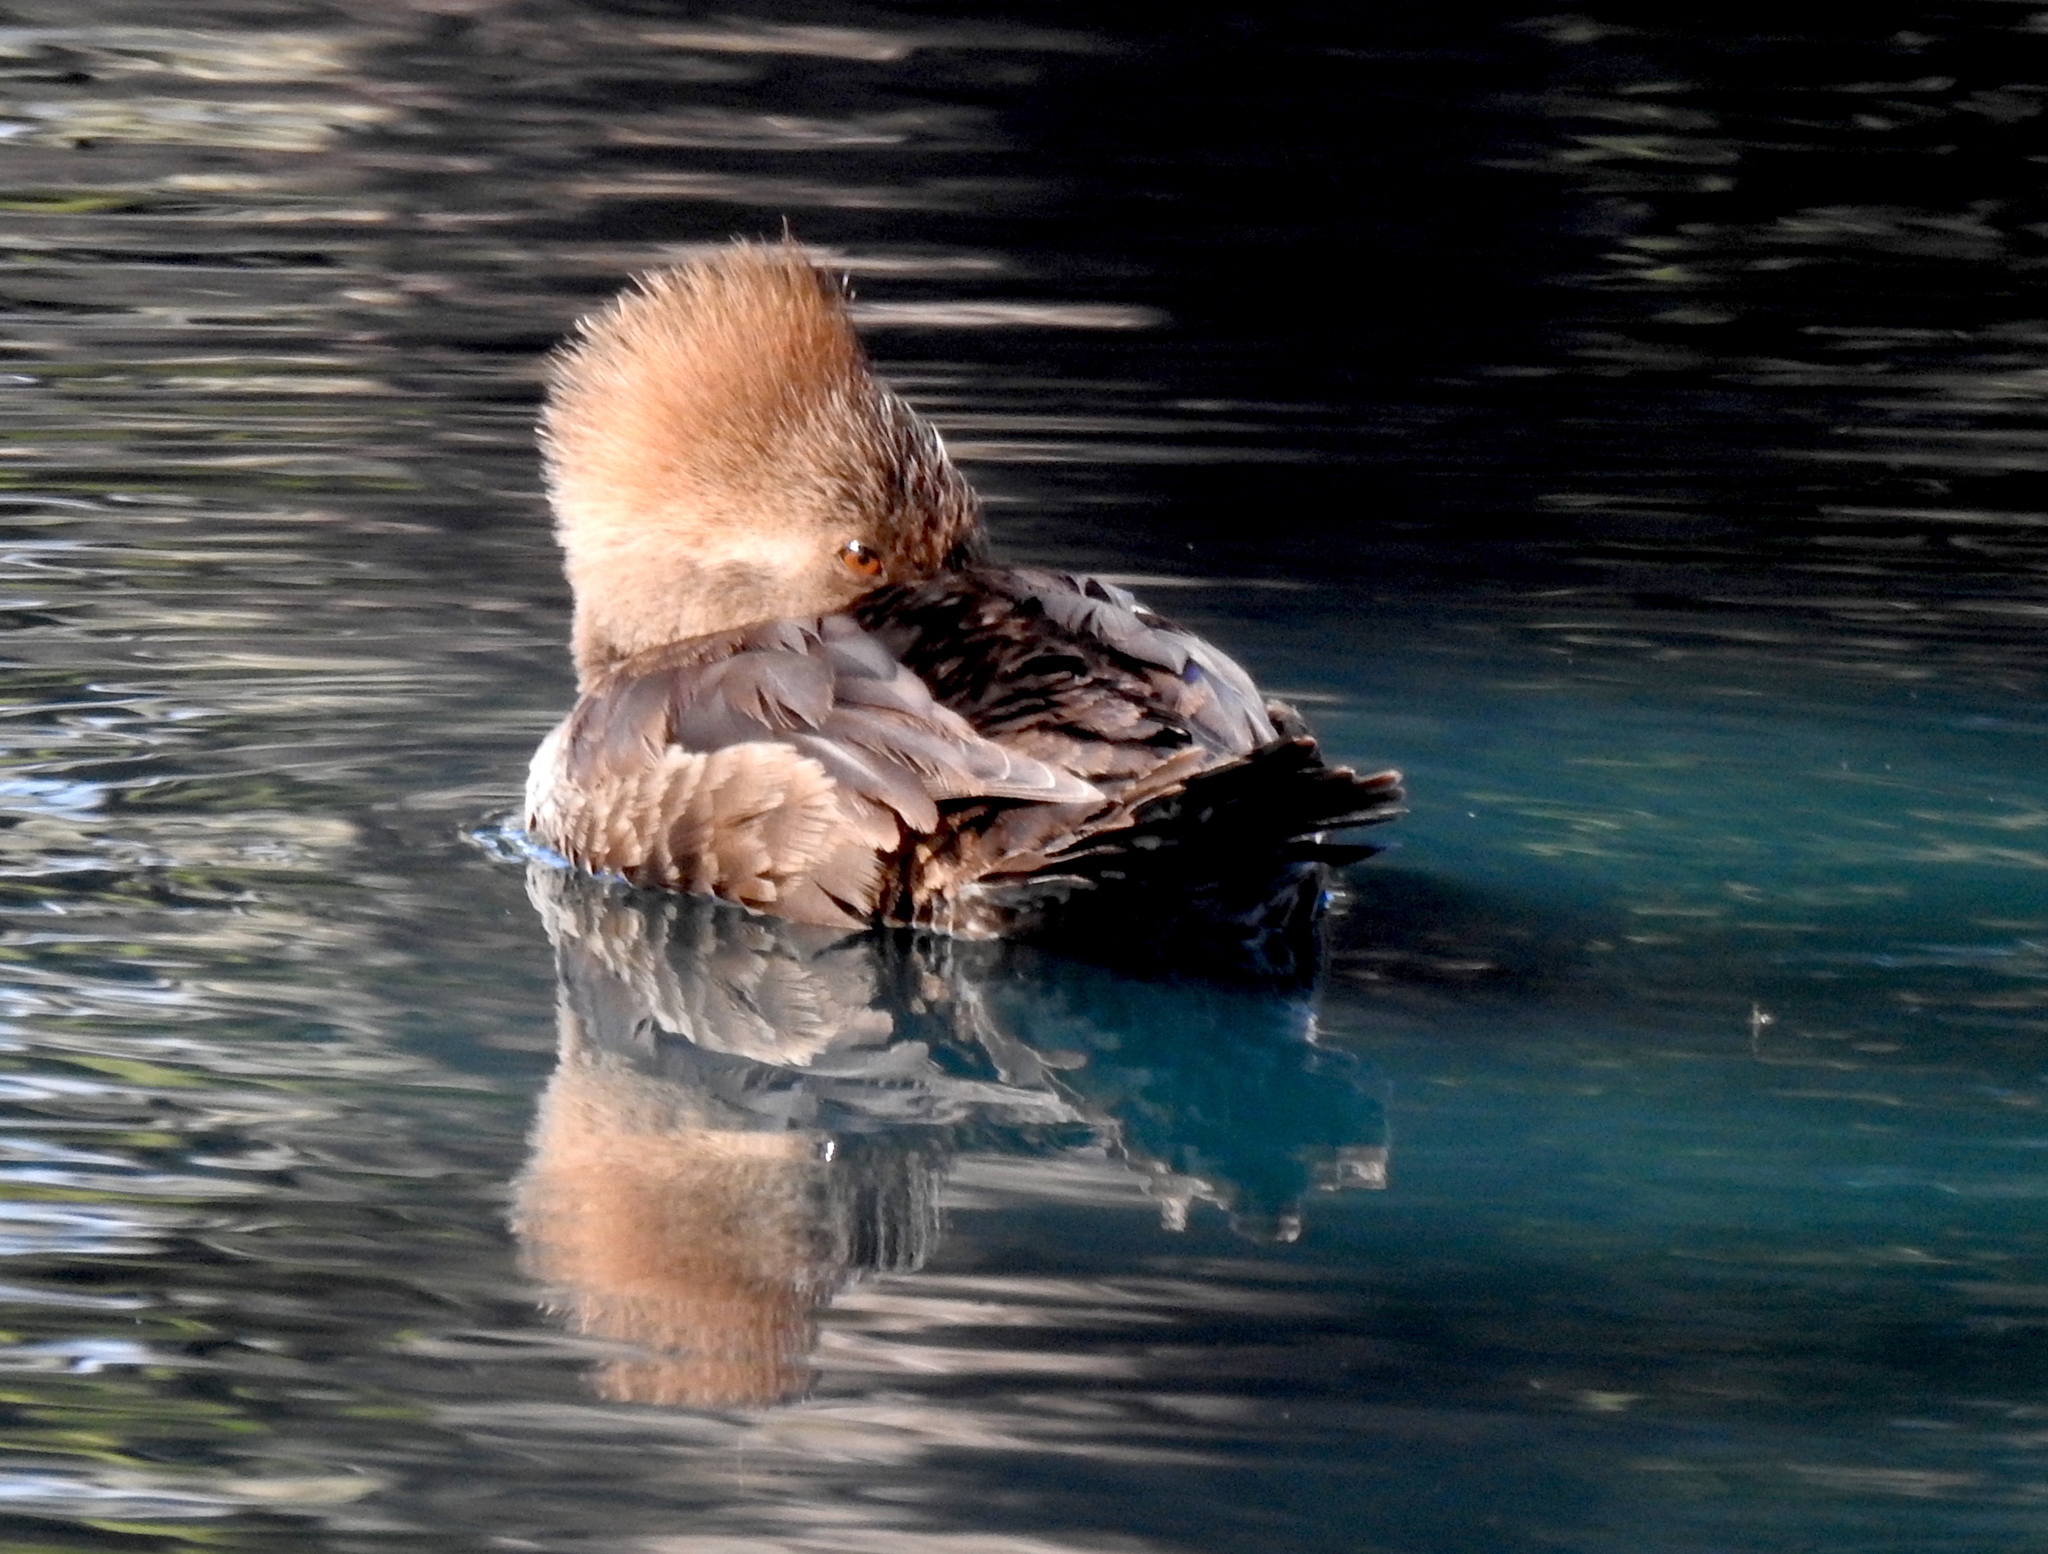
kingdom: Animalia
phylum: Chordata
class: Aves
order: Anseriformes
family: Anatidae
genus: Lophodytes
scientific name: Lophodytes cucullatus
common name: Hooded merganser
